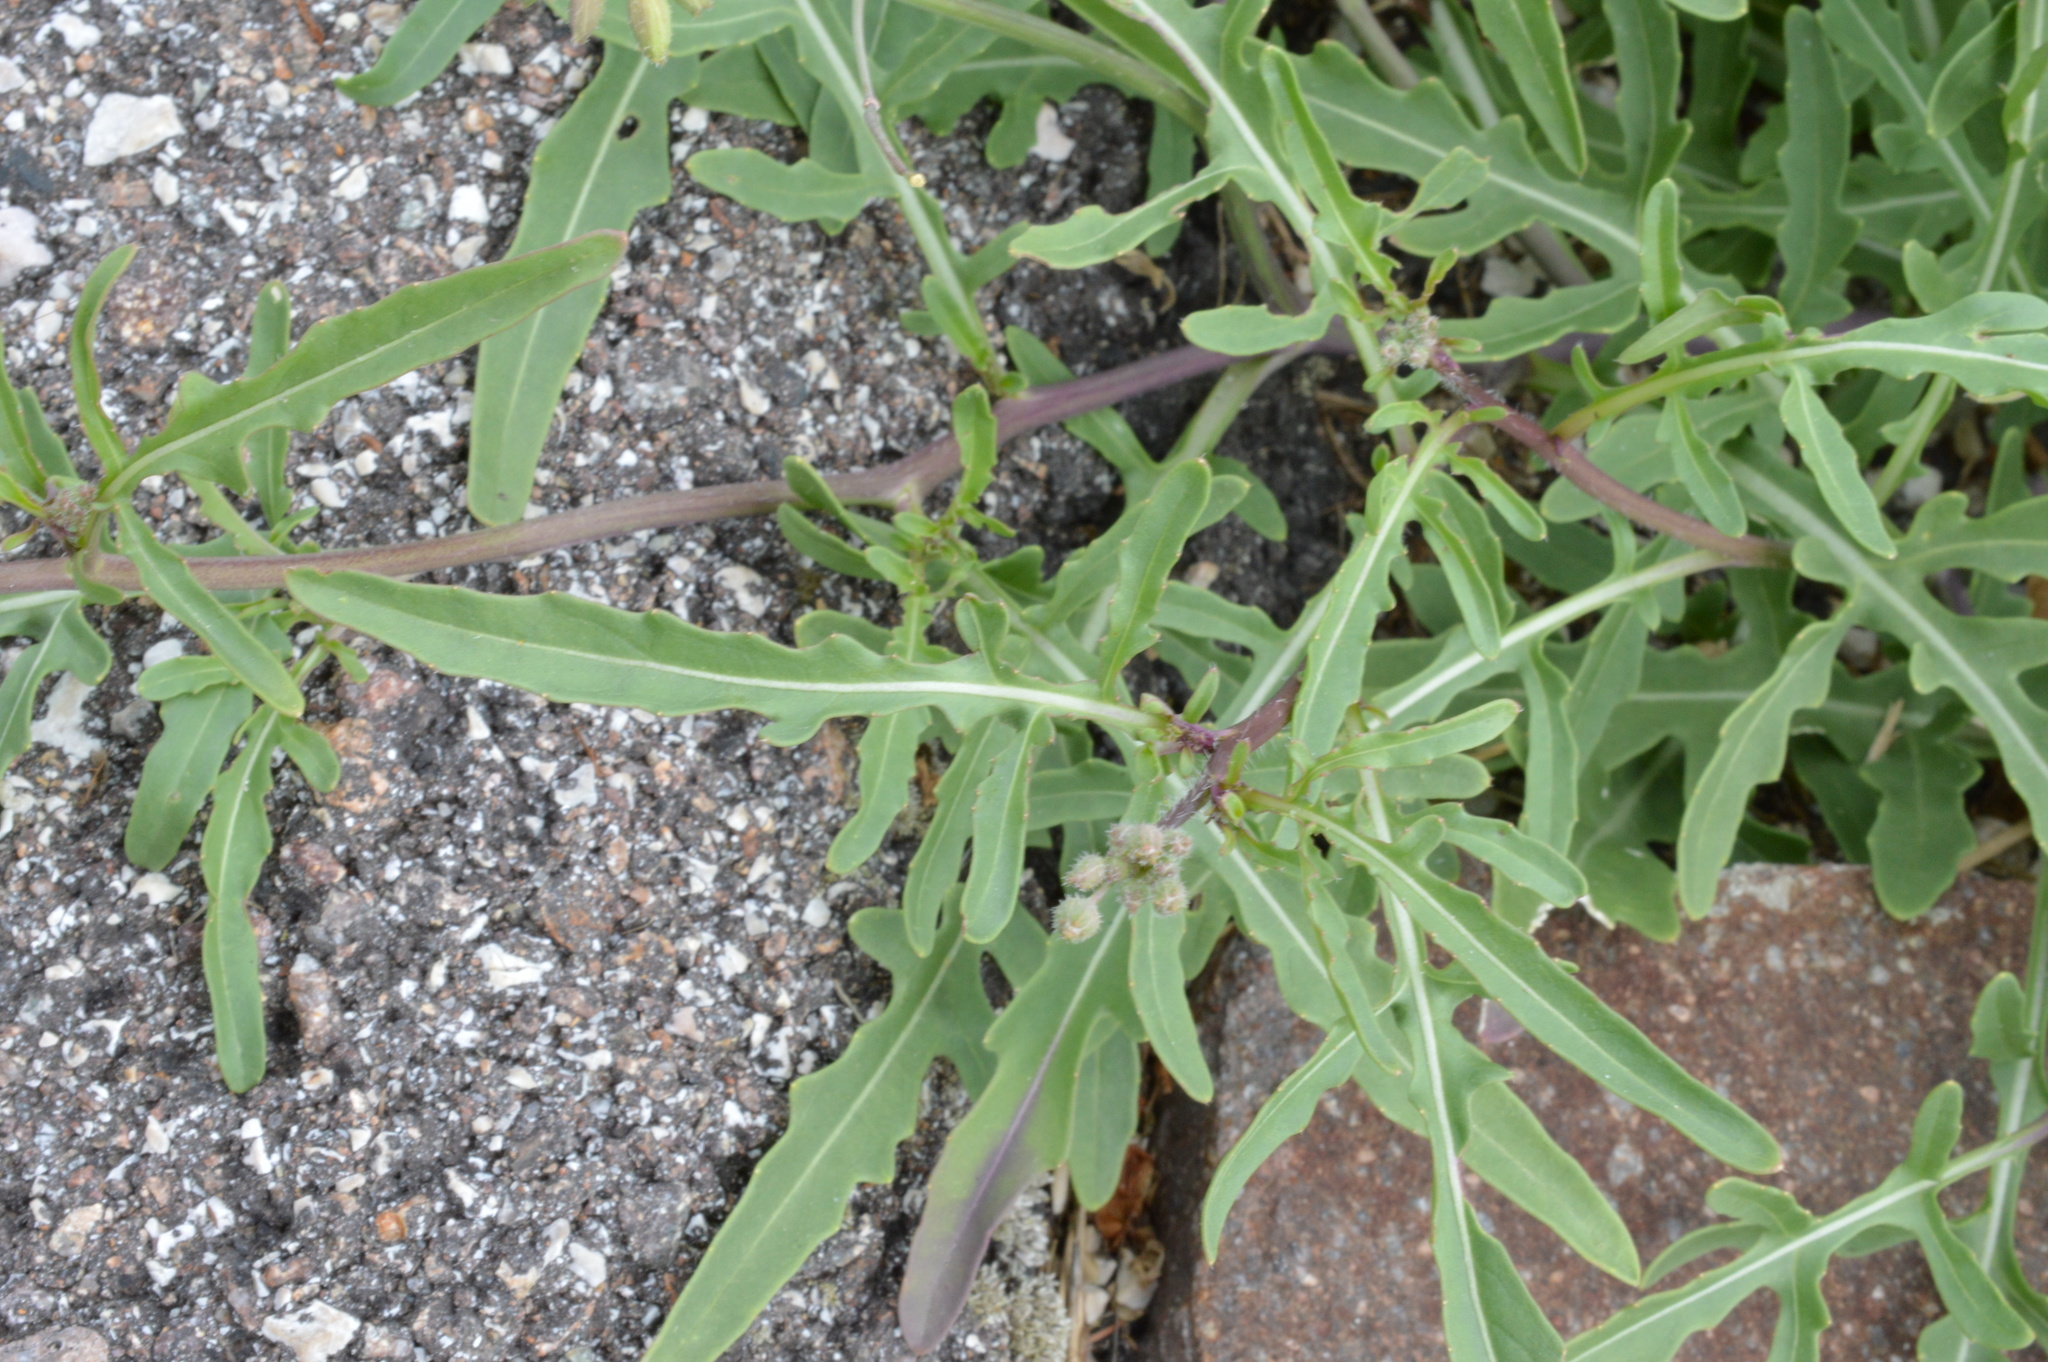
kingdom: Plantae
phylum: Tracheophyta
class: Magnoliopsida
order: Brassicales
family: Brassicaceae
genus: Diplotaxis
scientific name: Diplotaxis tenuifolia
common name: Perennial wall-rocket
